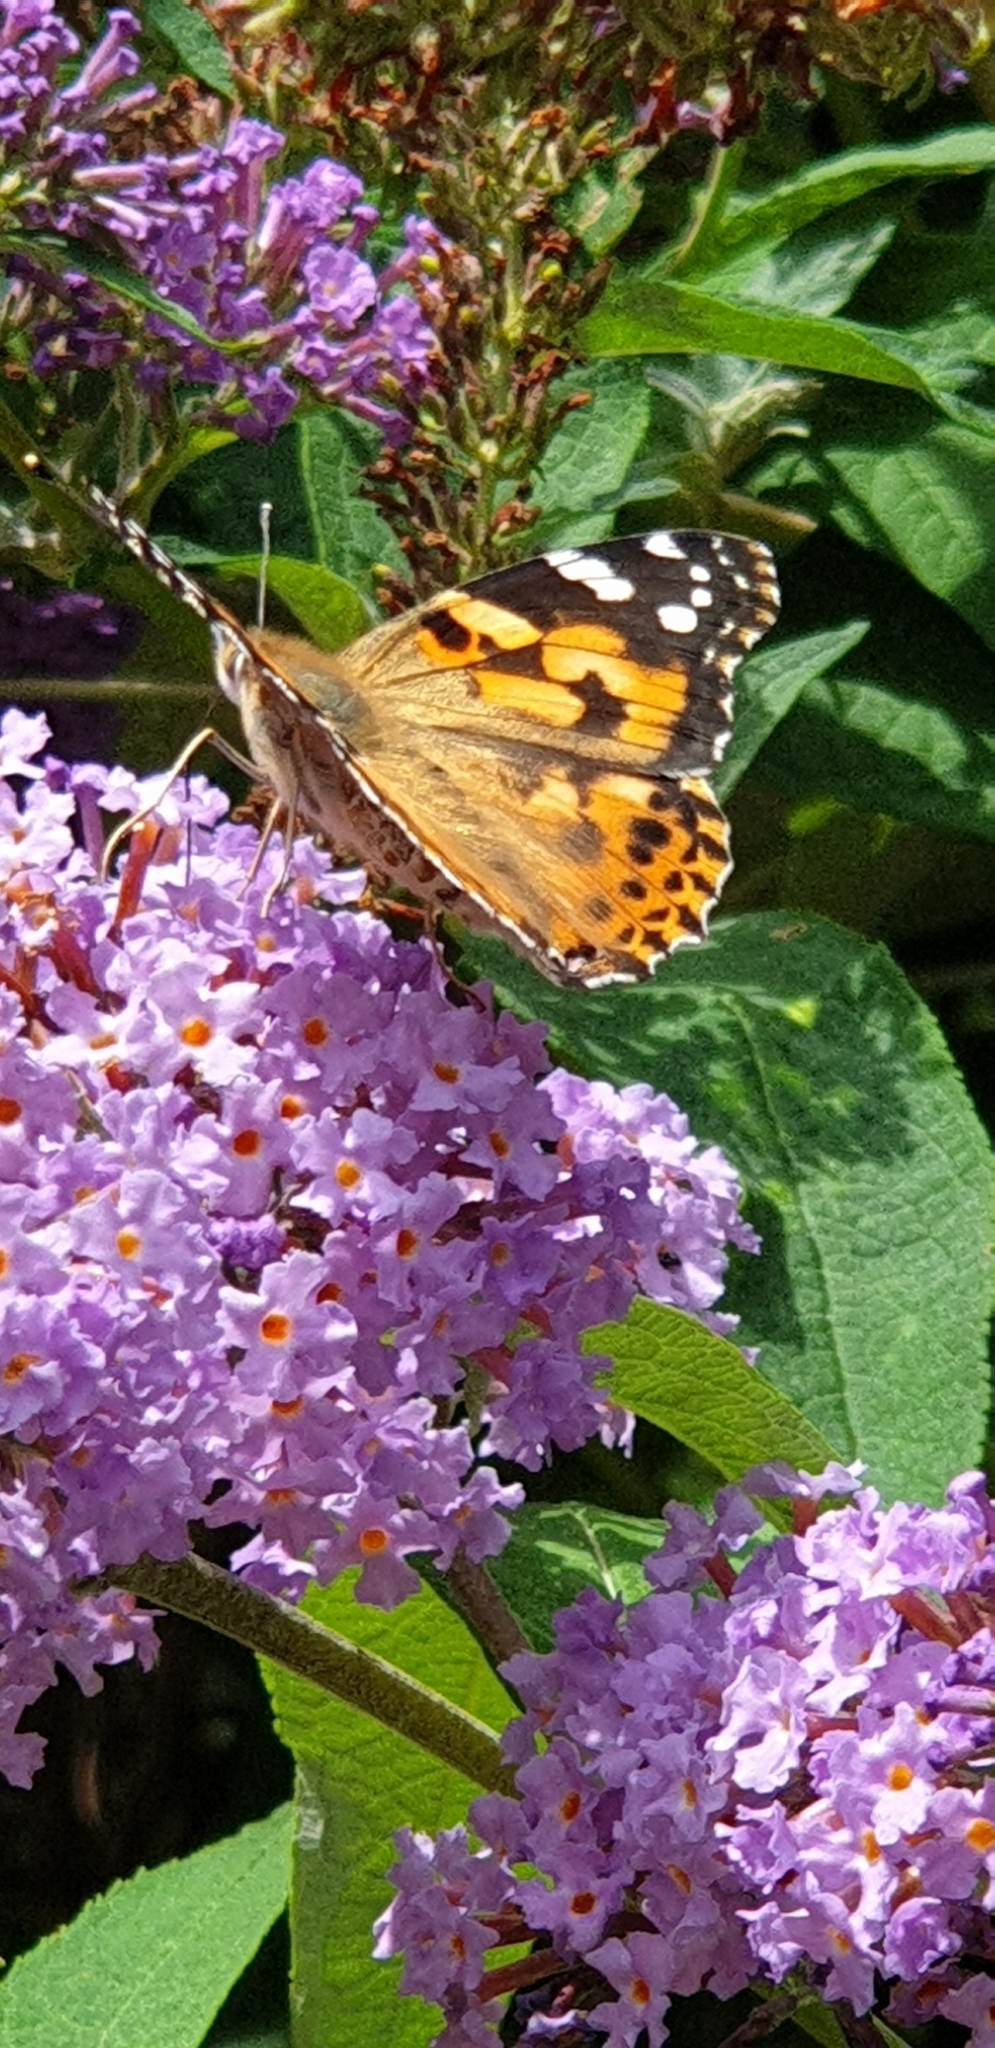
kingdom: Animalia
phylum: Arthropoda
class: Insecta
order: Lepidoptera
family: Nymphalidae
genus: Vanessa
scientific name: Vanessa cardui
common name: Painted lady
